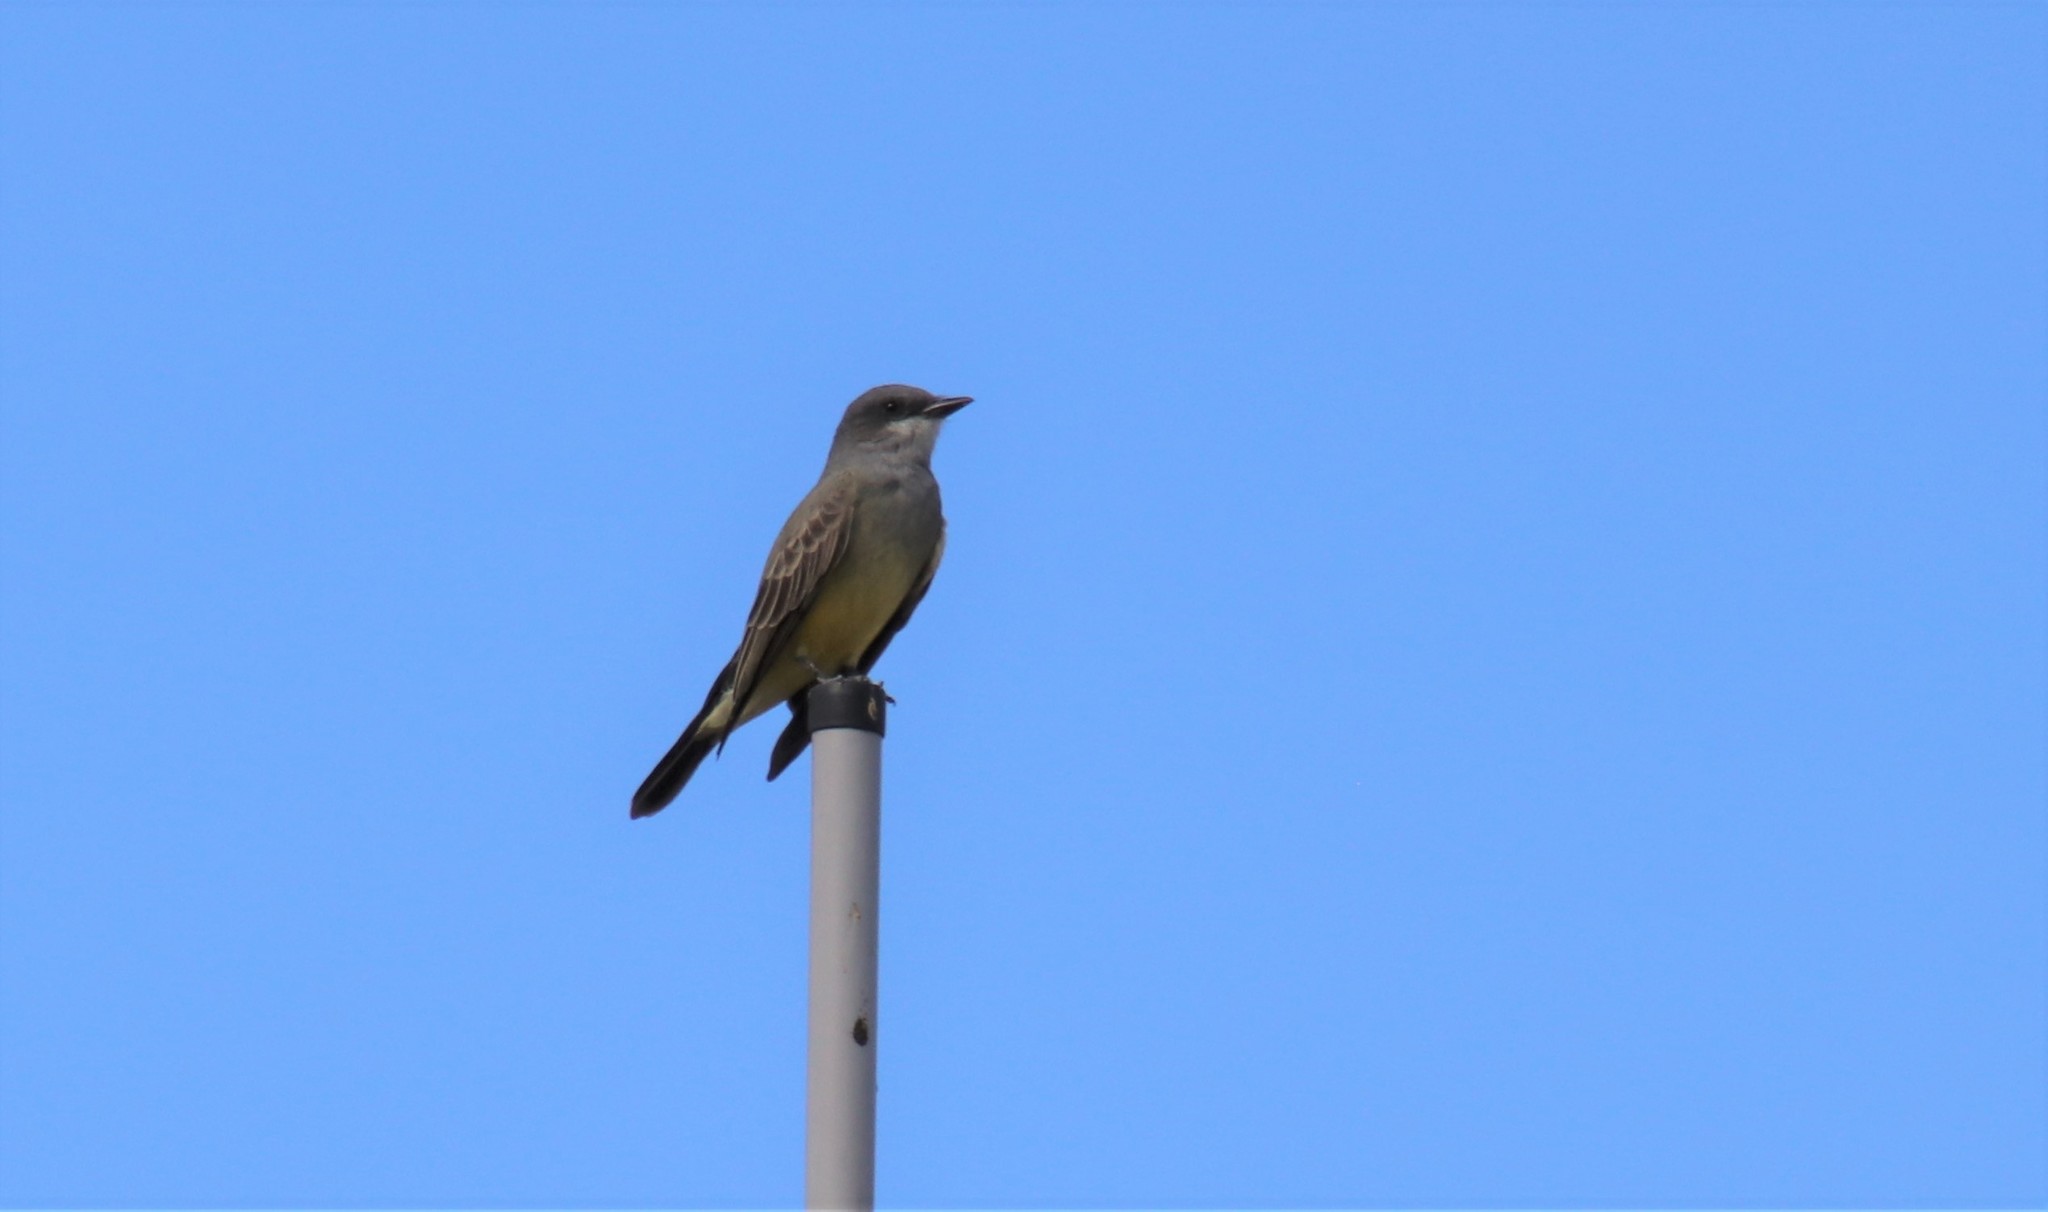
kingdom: Animalia
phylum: Chordata
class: Aves
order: Passeriformes
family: Tyrannidae
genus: Tyrannus
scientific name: Tyrannus vociferans
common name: Cassin's kingbird
